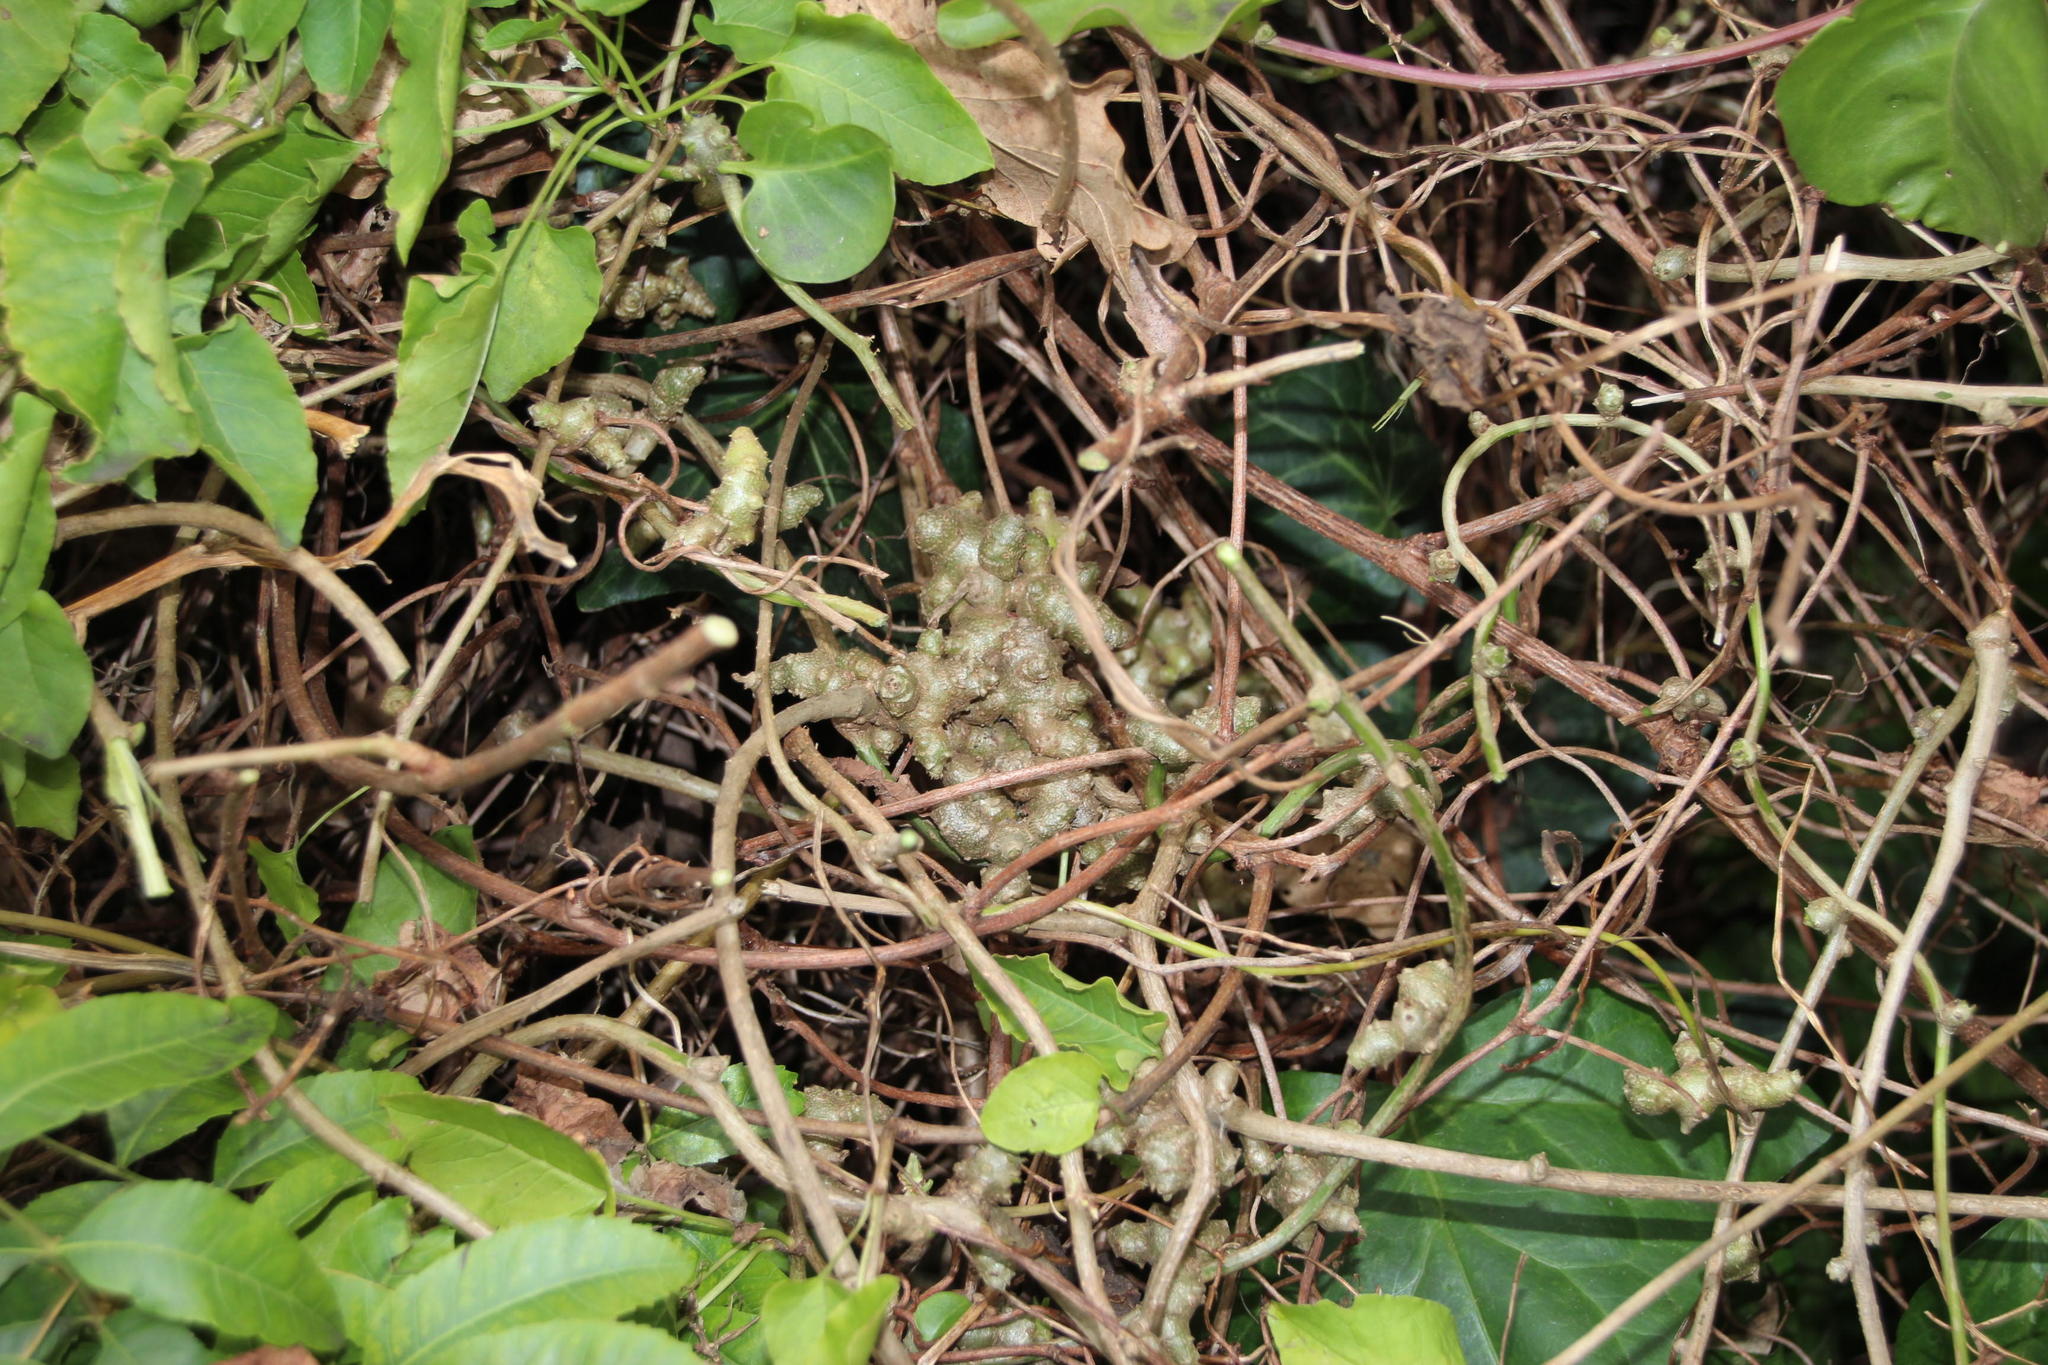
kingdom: Plantae
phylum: Tracheophyta
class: Magnoliopsida
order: Caryophyllales
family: Basellaceae
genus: Anredera
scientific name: Anredera cordifolia
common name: Heartleaf madeiravine
